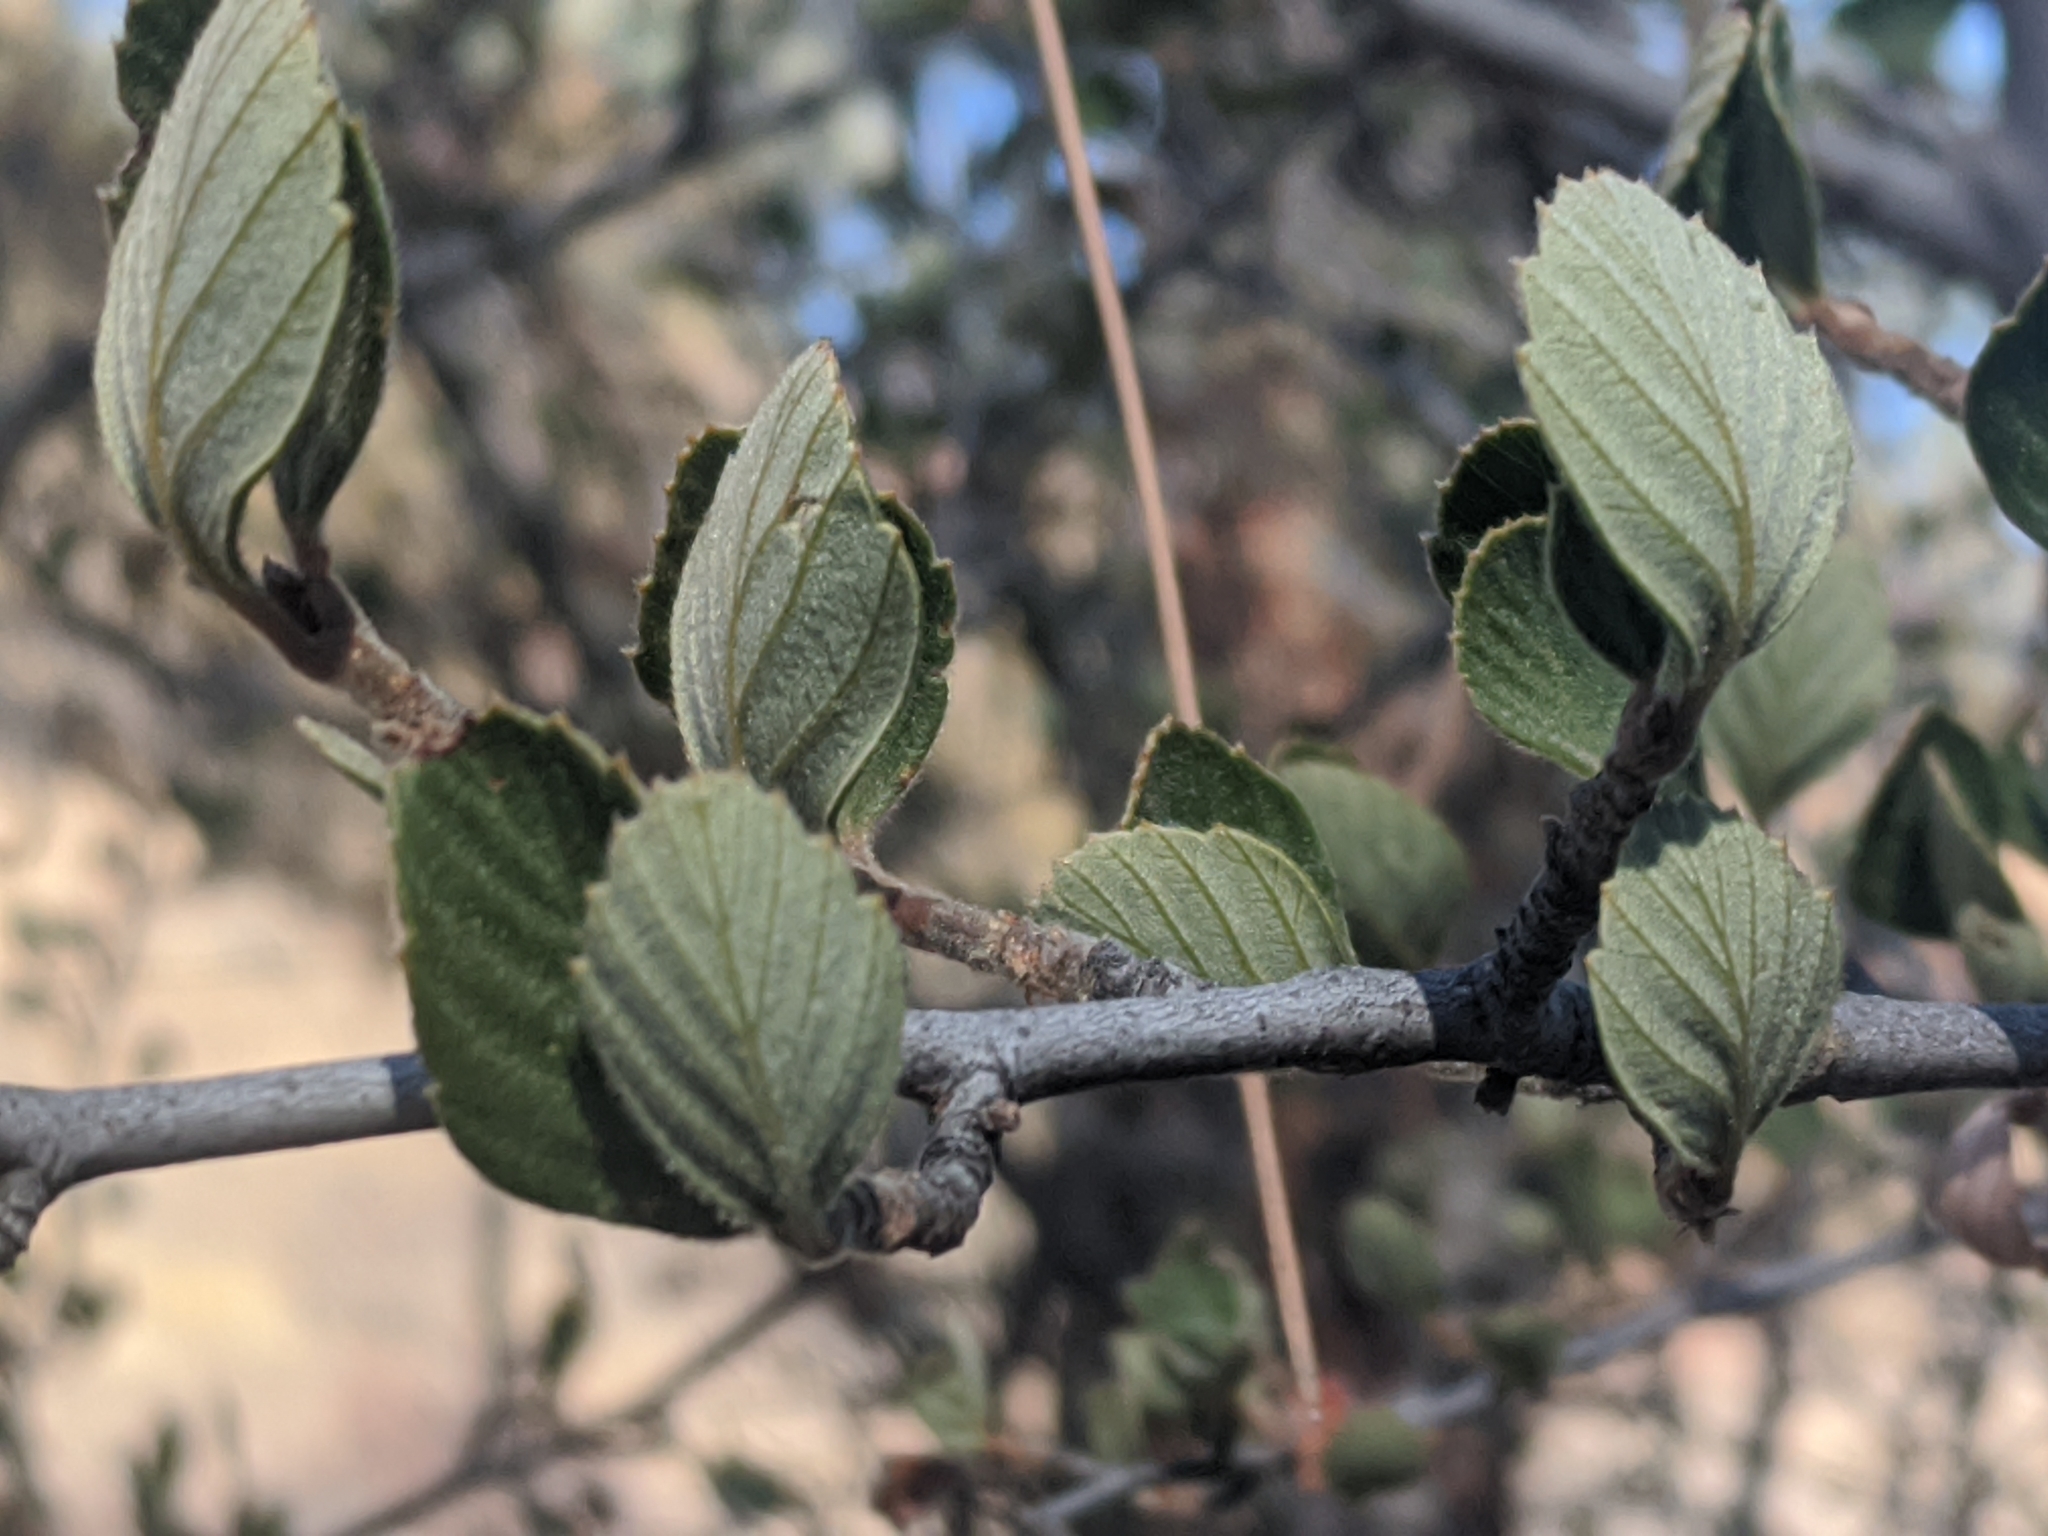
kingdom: Plantae
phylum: Tracheophyta
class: Magnoliopsida
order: Rosales
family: Rosaceae
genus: Cercocarpus
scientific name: Cercocarpus betuloides
